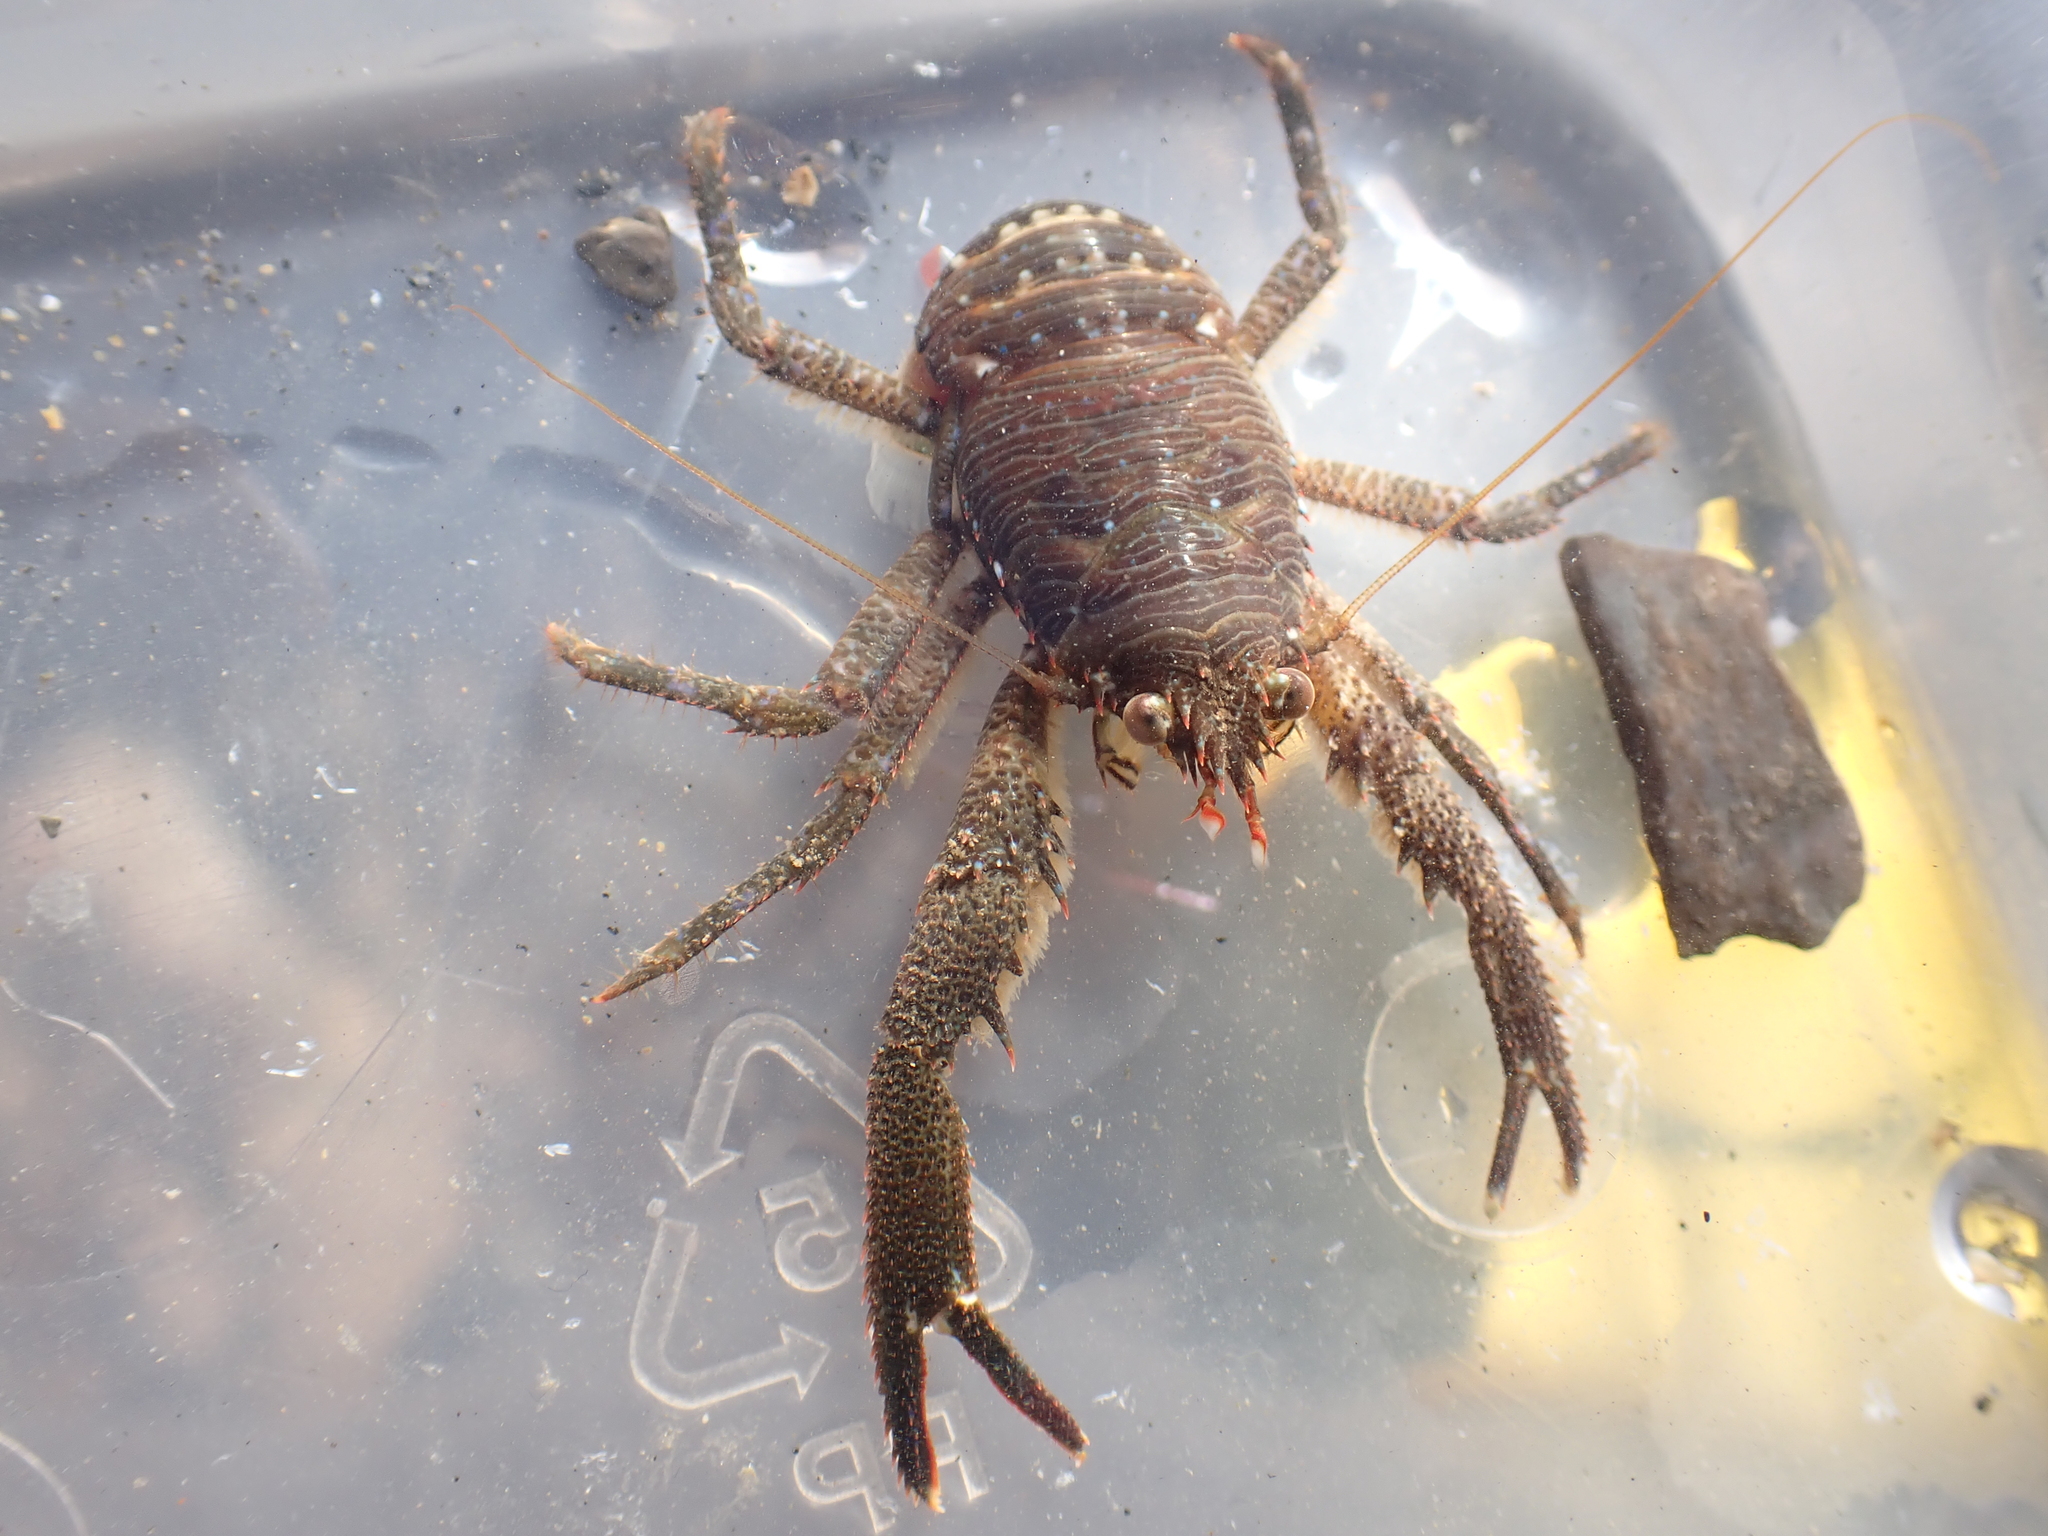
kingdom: Animalia
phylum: Arthropoda
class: Malacostraca
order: Decapoda
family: Galatheidae
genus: Galathea
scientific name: Galathea squamifera
